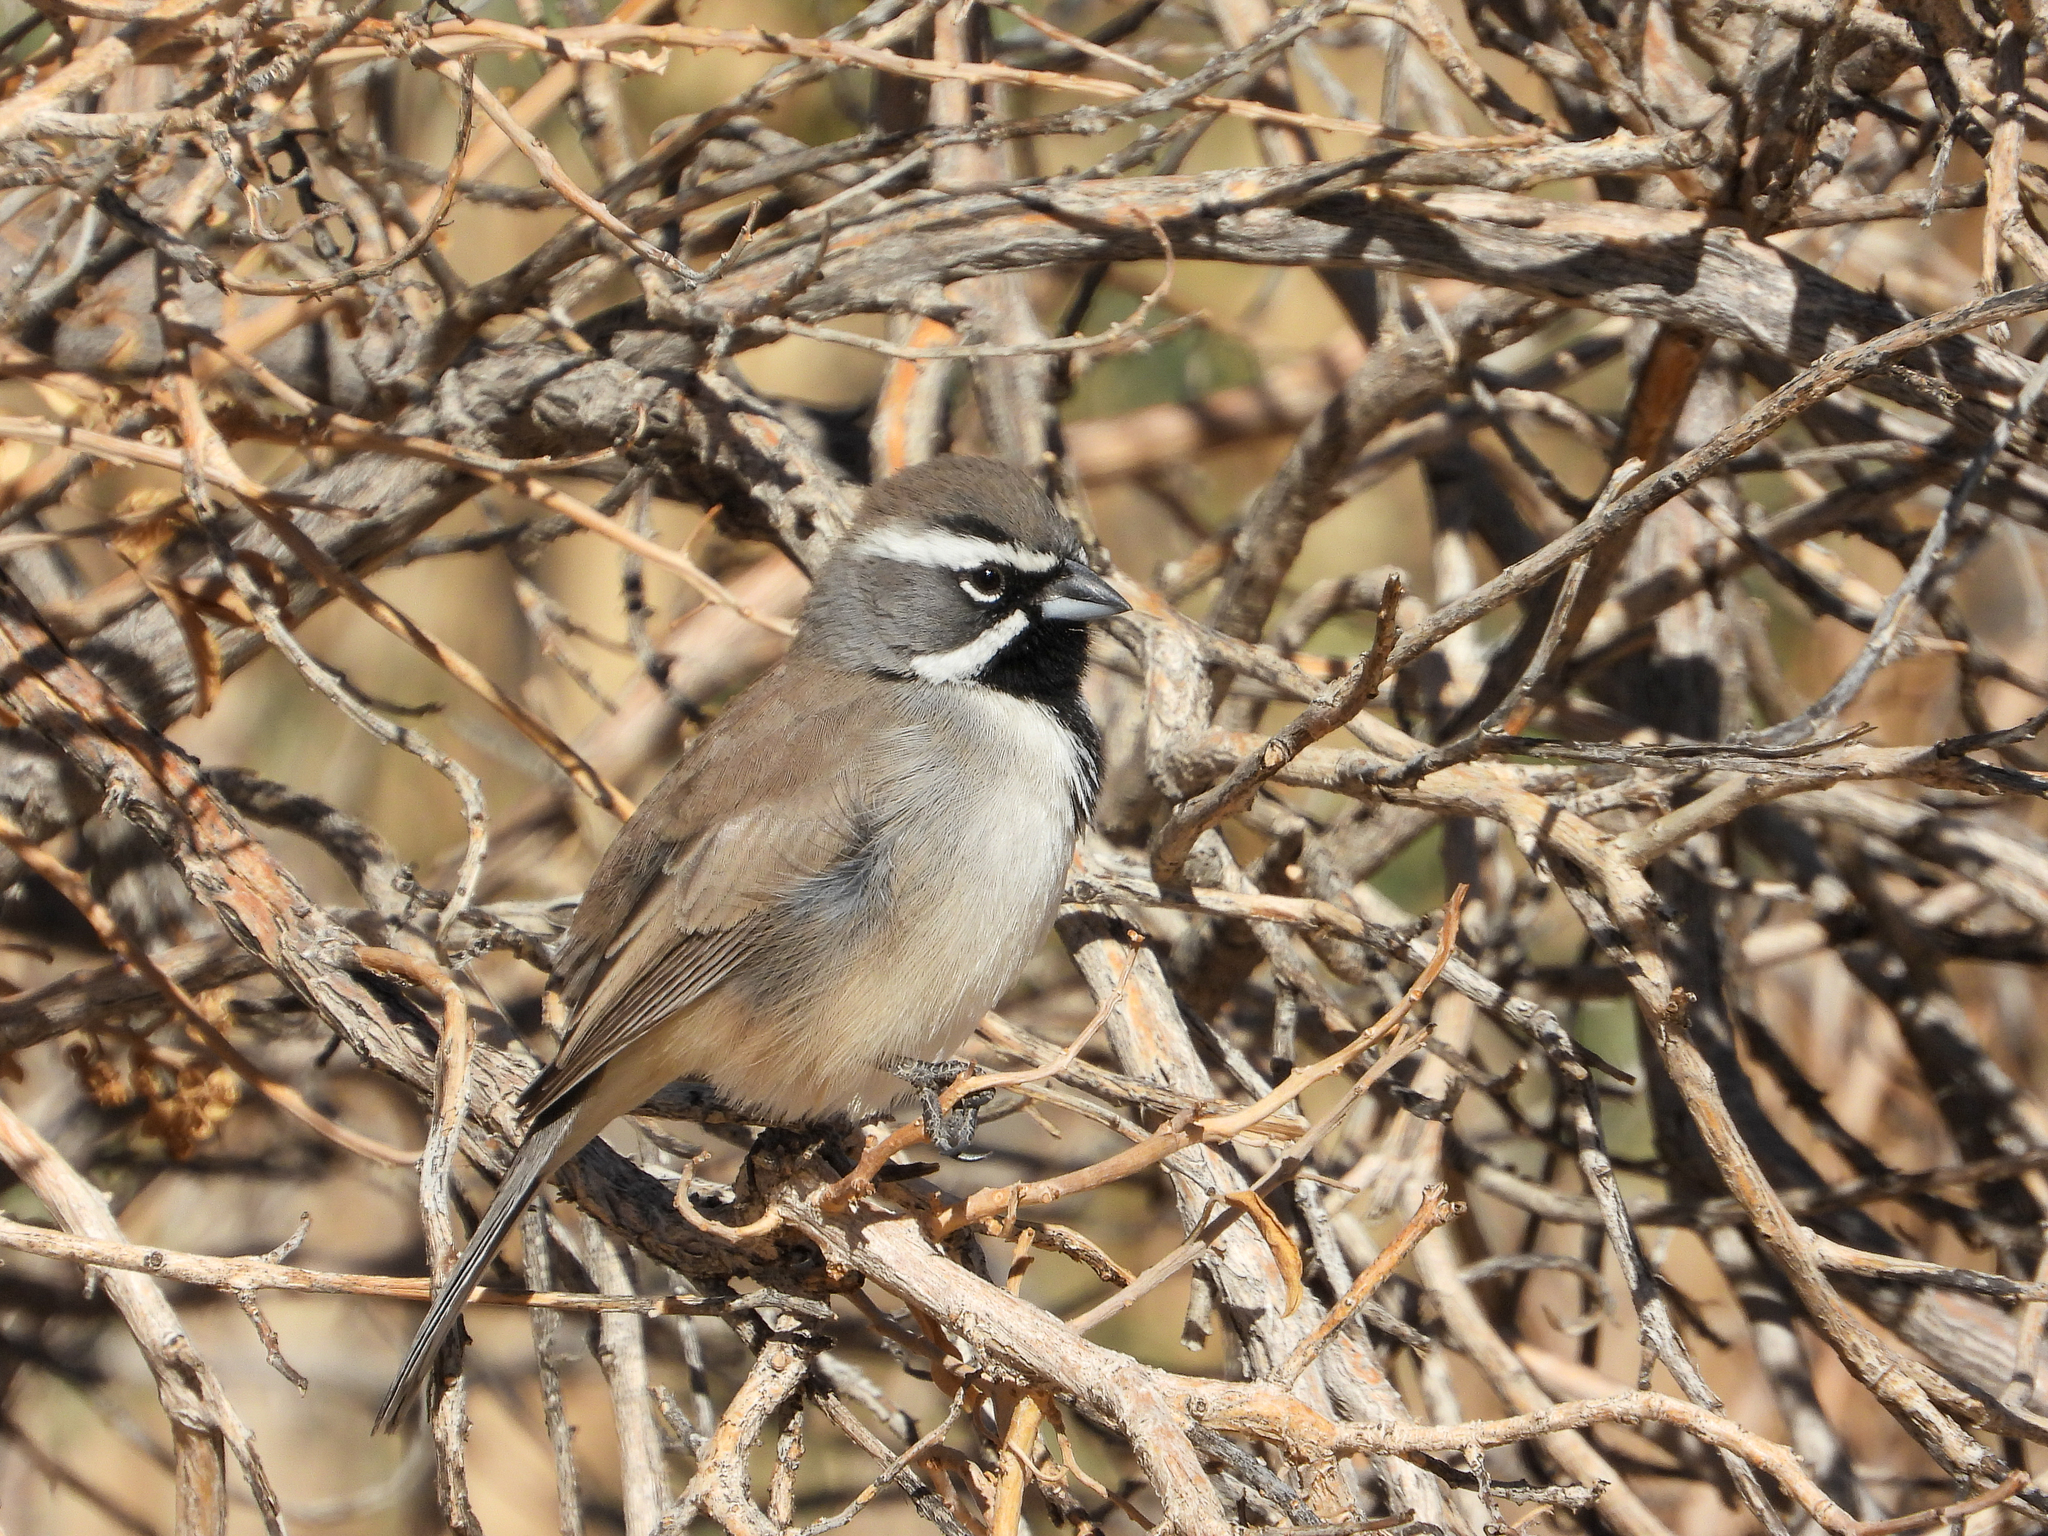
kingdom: Animalia
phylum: Chordata
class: Aves
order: Passeriformes
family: Passerellidae
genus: Amphispiza
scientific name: Amphispiza bilineata
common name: Black-throated sparrow
